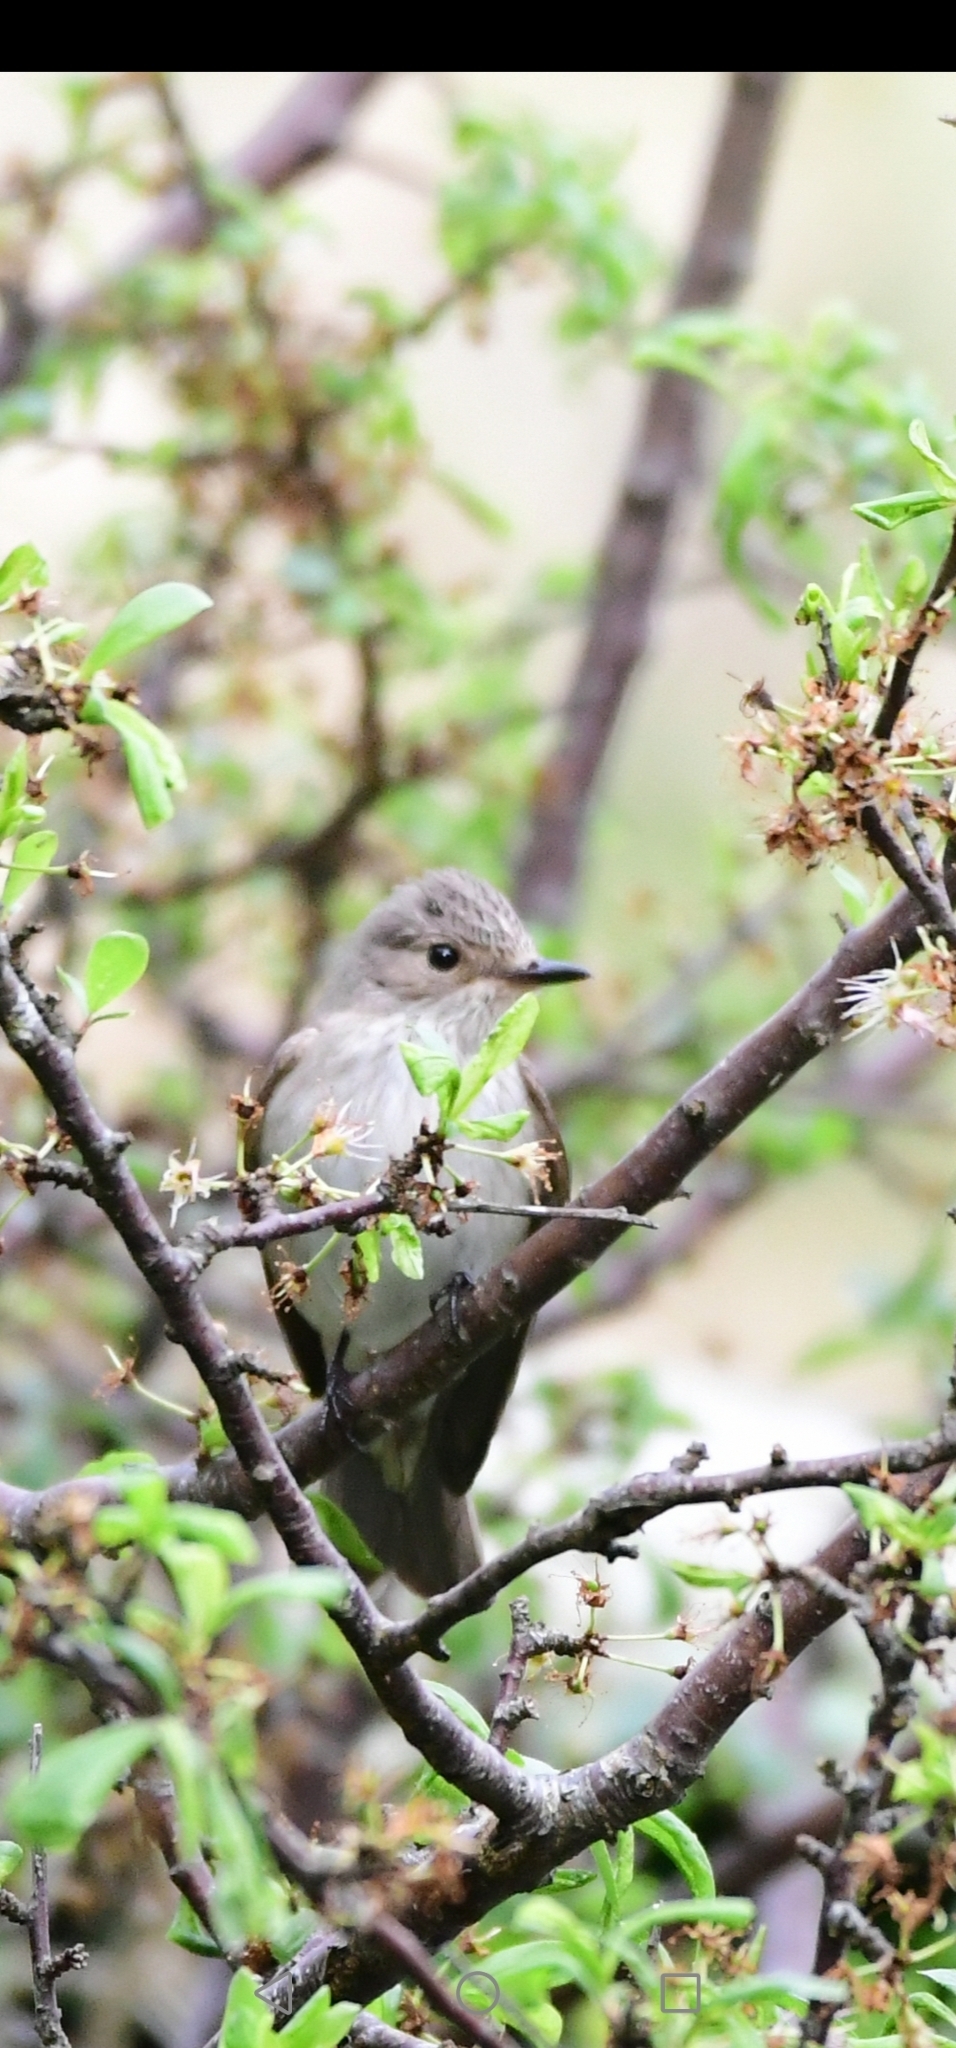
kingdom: Animalia
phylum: Chordata
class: Aves
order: Passeriformes
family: Muscicapidae
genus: Muscicapa
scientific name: Muscicapa striata
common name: Spotted flycatcher
